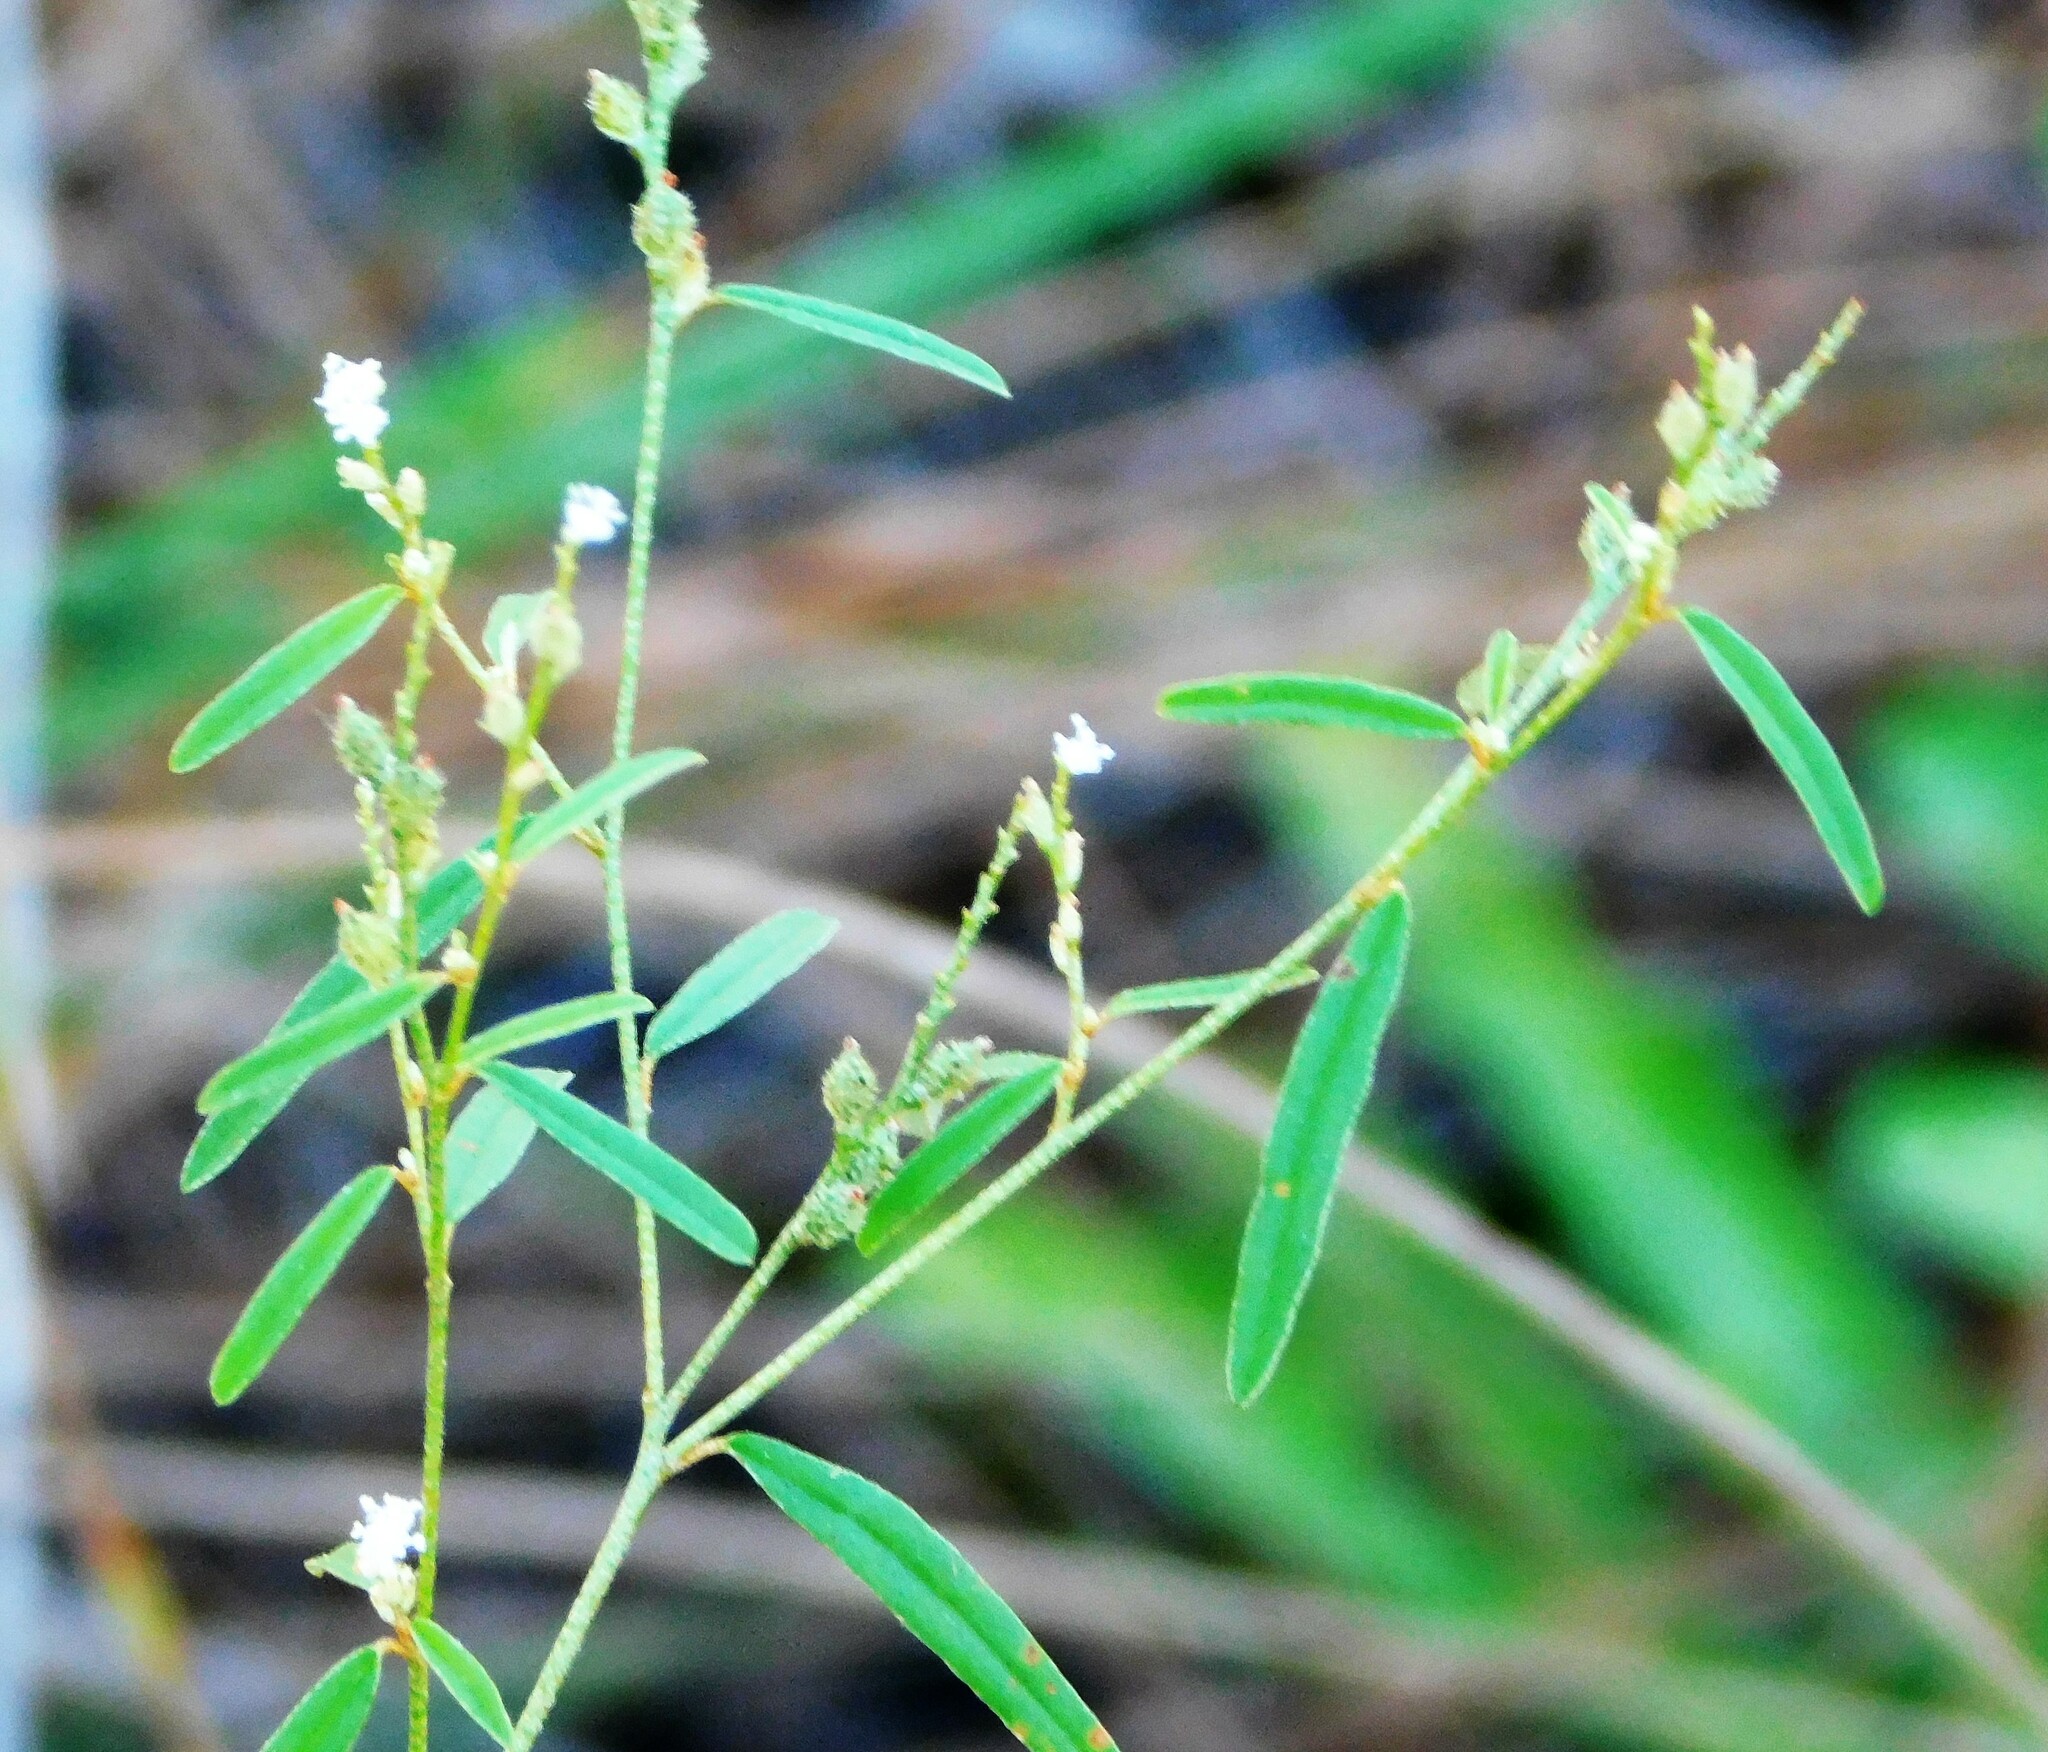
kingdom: Plantae
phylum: Tracheophyta
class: Magnoliopsida
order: Malpighiales
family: Euphorbiaceae
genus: Croton
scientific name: Croton michauxii
